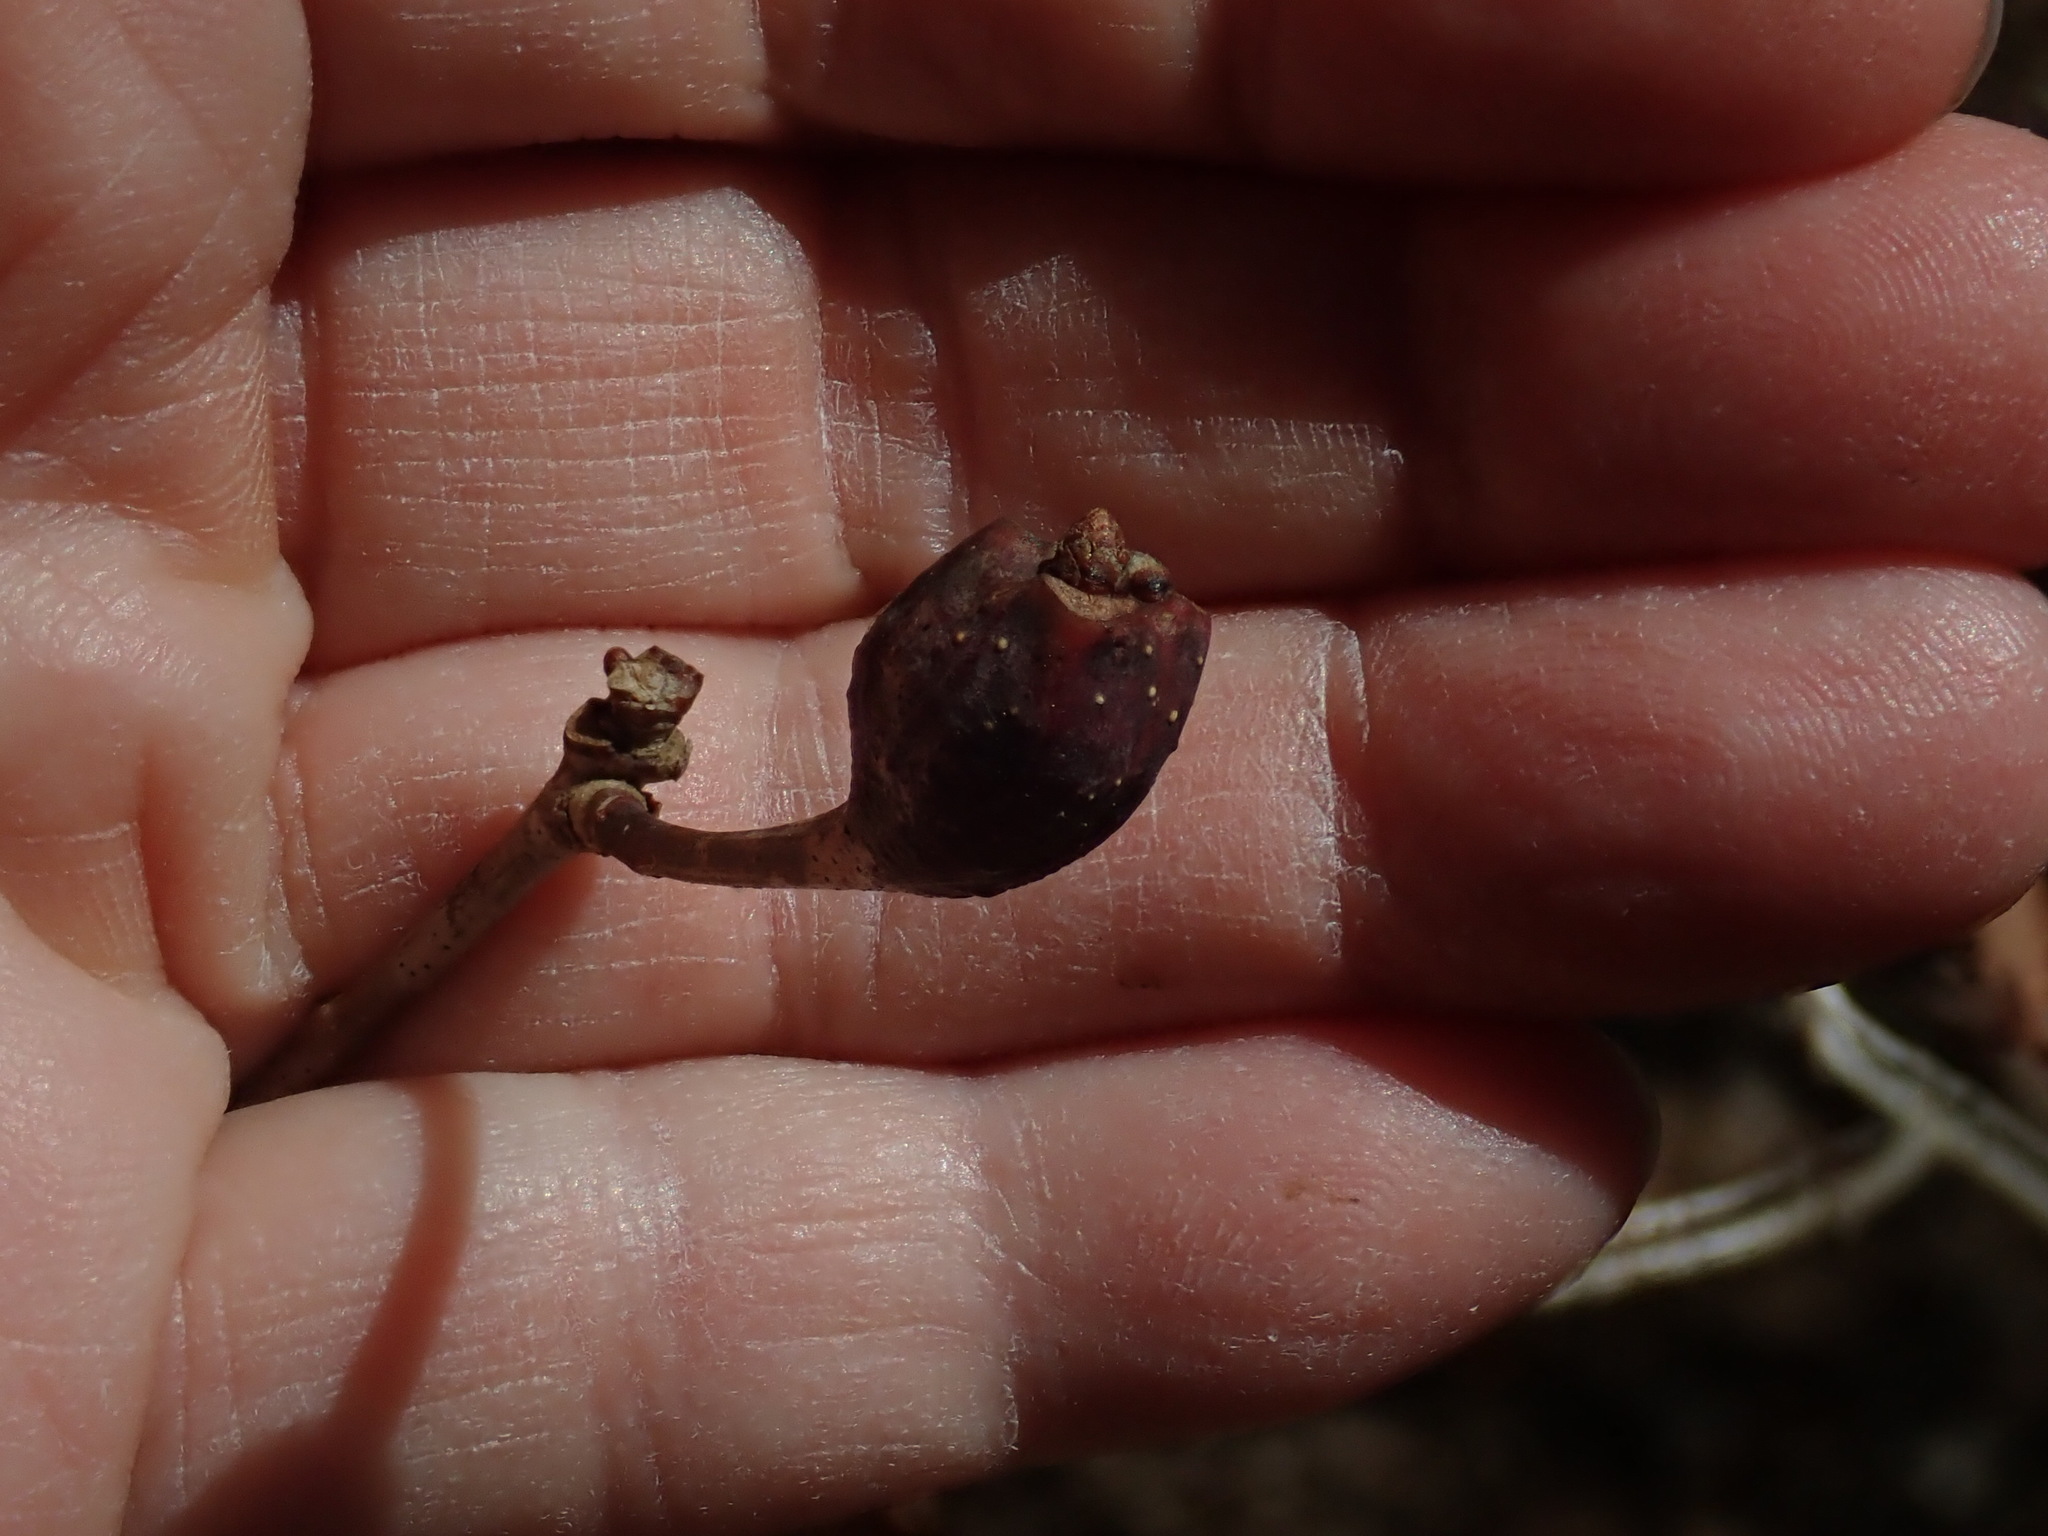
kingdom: Animalia
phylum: Arthropoda
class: Insecta
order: Hymenoptera
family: Cynipidae
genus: Callirhytis
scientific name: Callirhytis clavula
